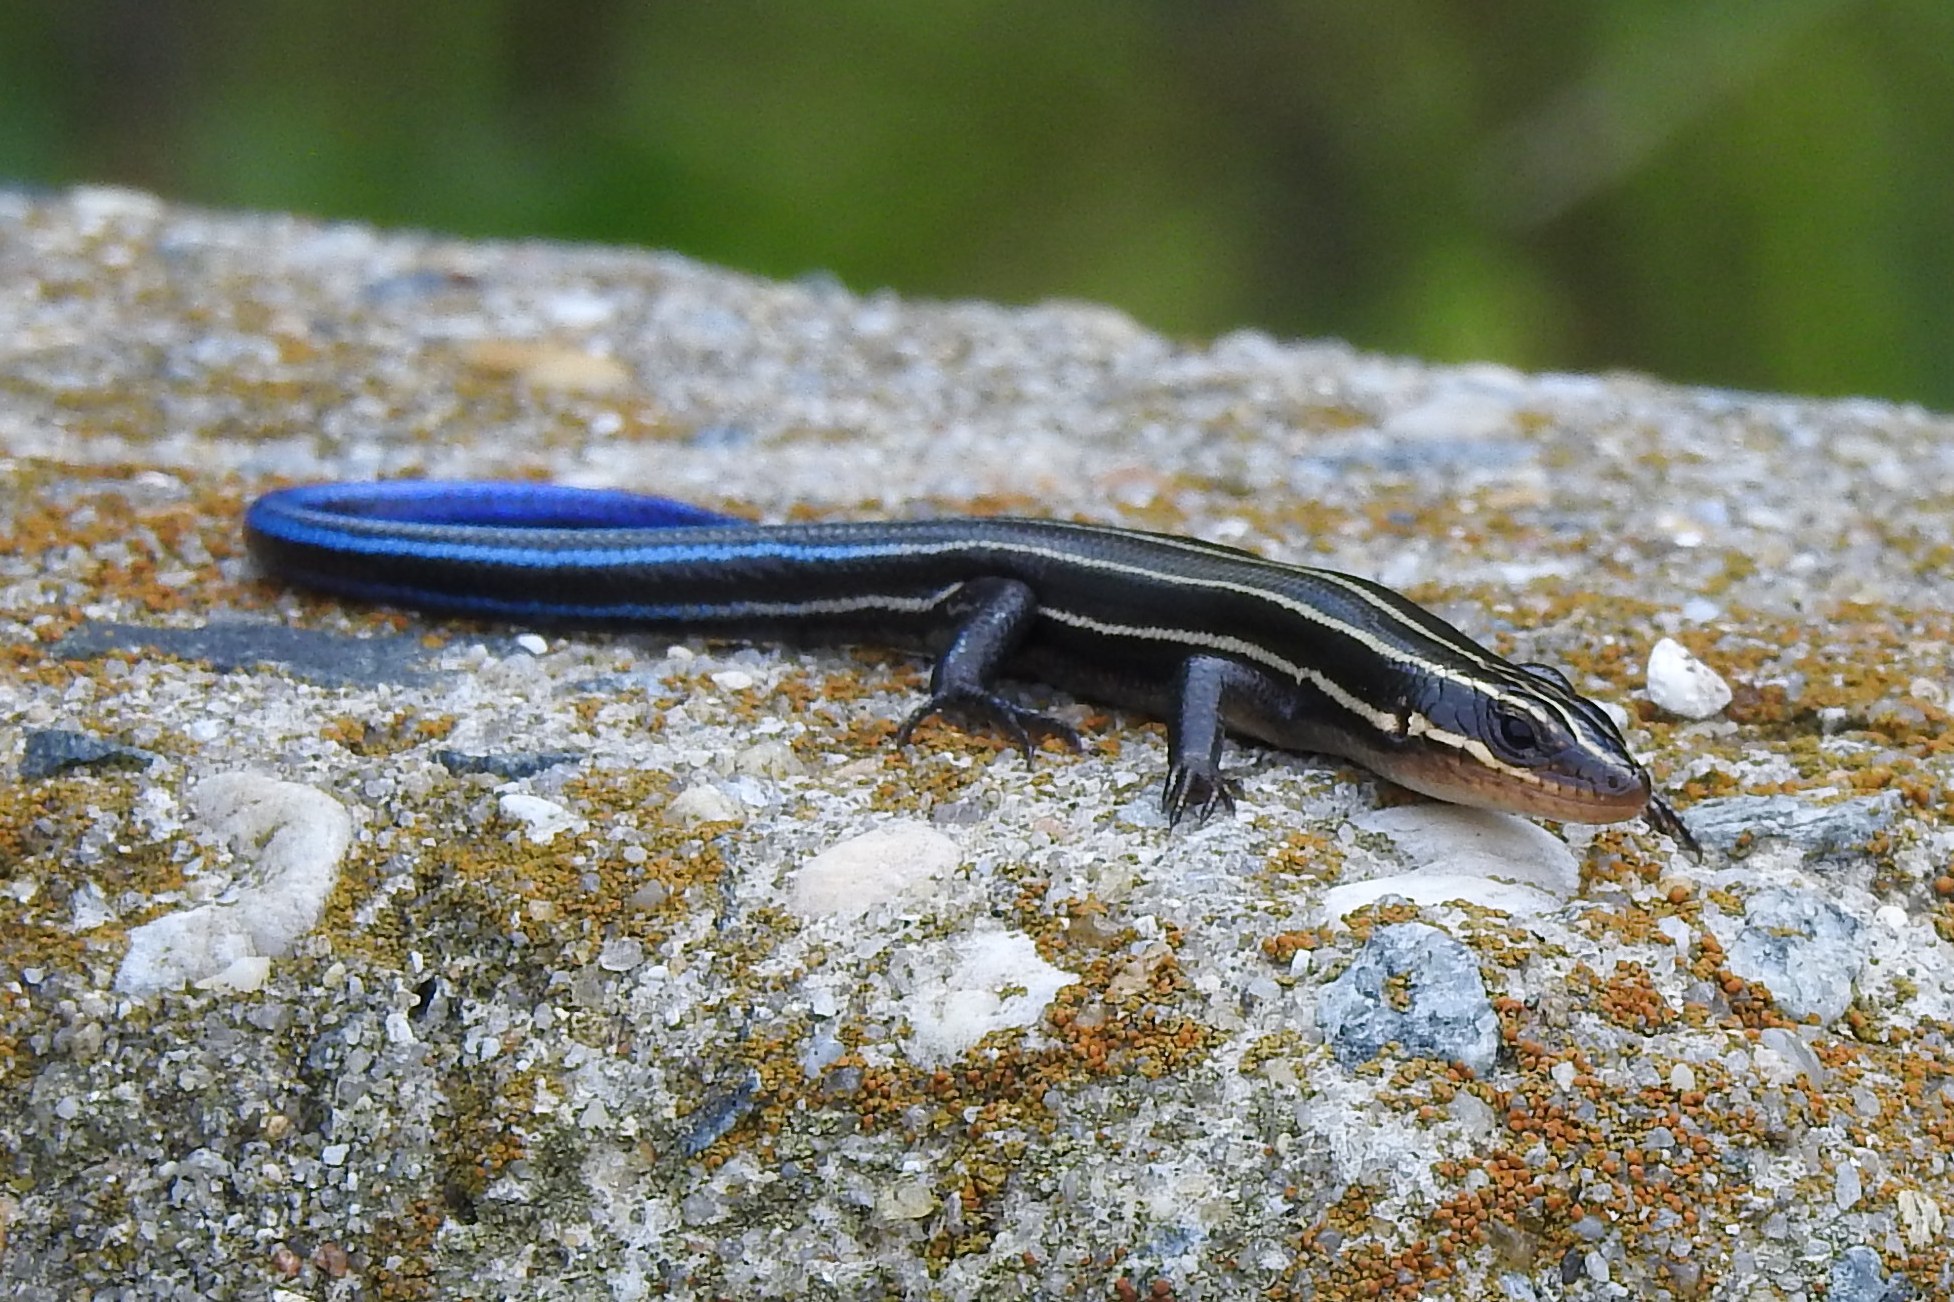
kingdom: Animalia
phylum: Chordata
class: Squamata
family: Scincidae
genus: Plestiodon
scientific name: Plestiodon fasciatus
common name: Five-lined skink
